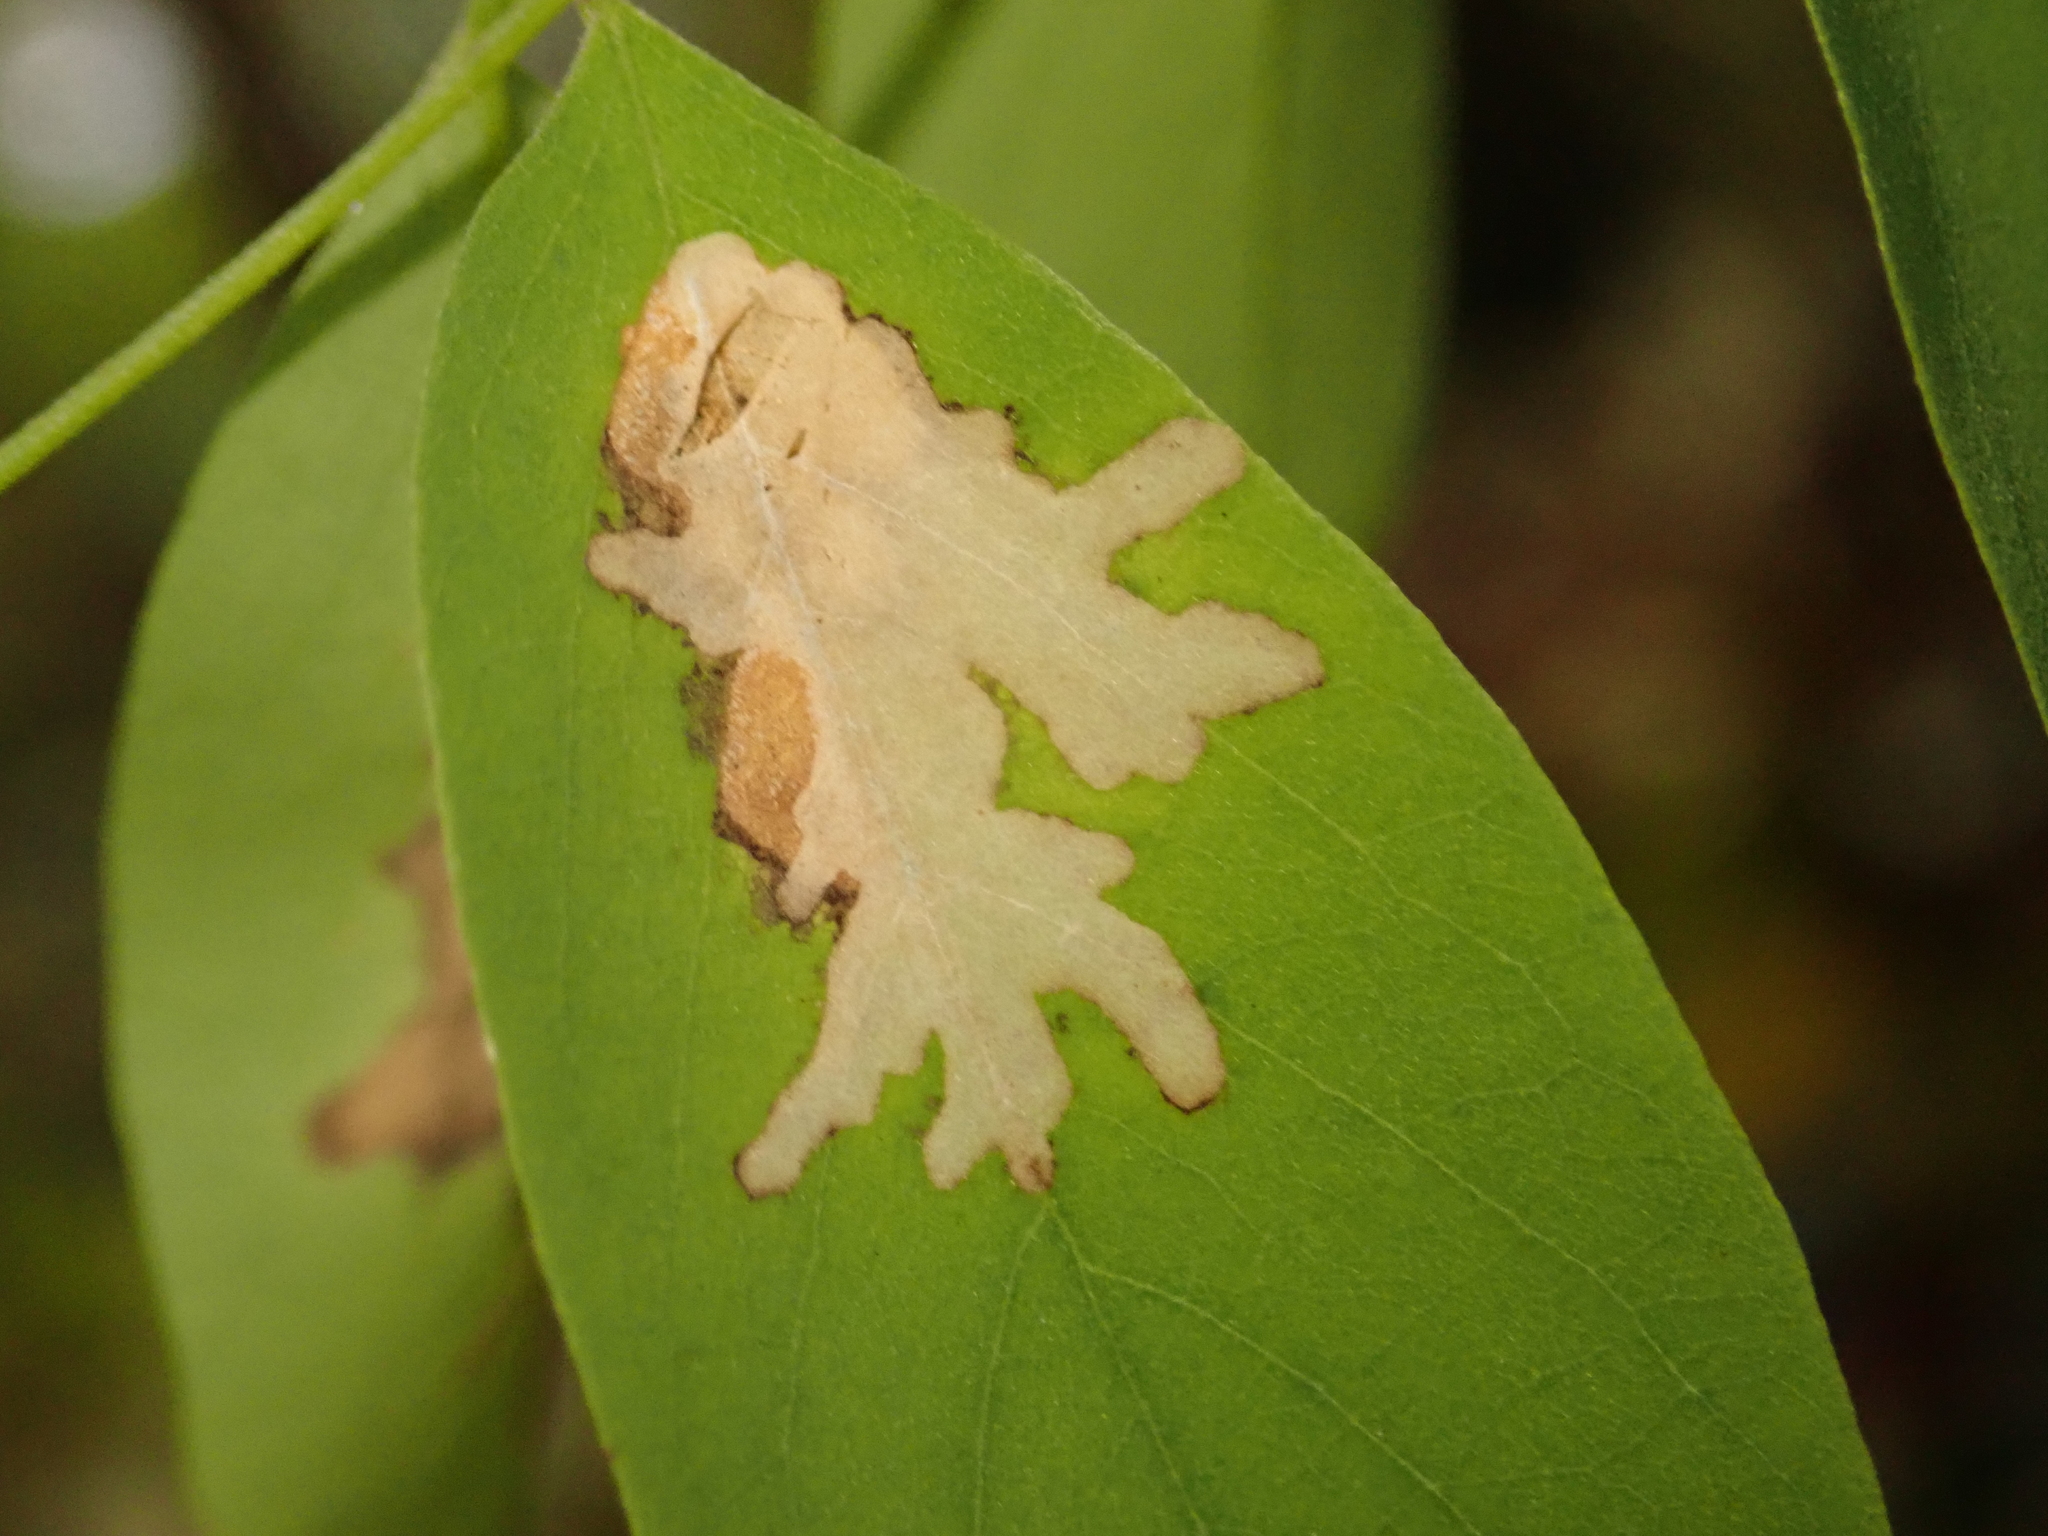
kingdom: Animalia
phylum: Arthropoda
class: Insecta
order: Lepidoptera
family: Gracillariidae
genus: Parectopa
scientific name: Parectopa robiniella
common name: Locust digitate leafminer
